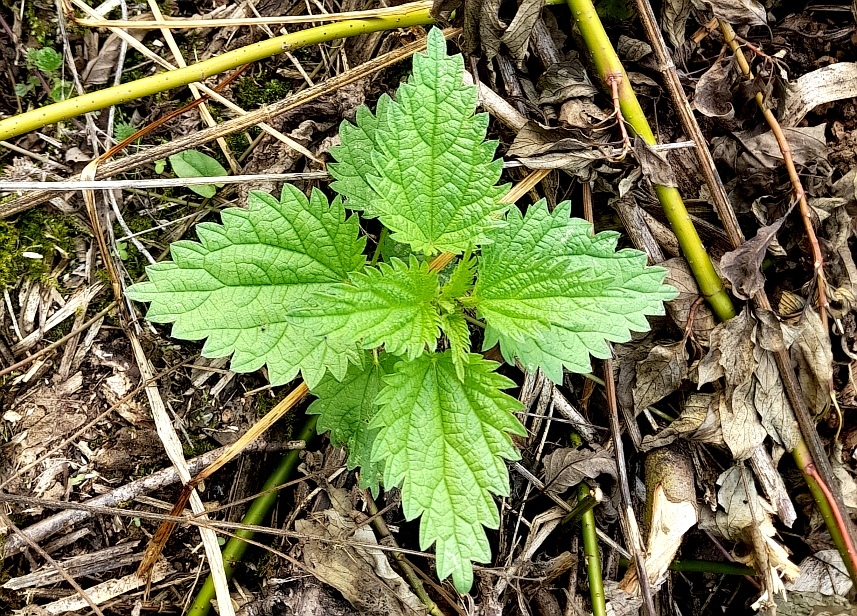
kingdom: Plantae
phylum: Tracheophyta
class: Magnoliopsida
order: Rosales
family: Urticaceae
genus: Urtica
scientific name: Urtica dioica
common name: Common nettle
